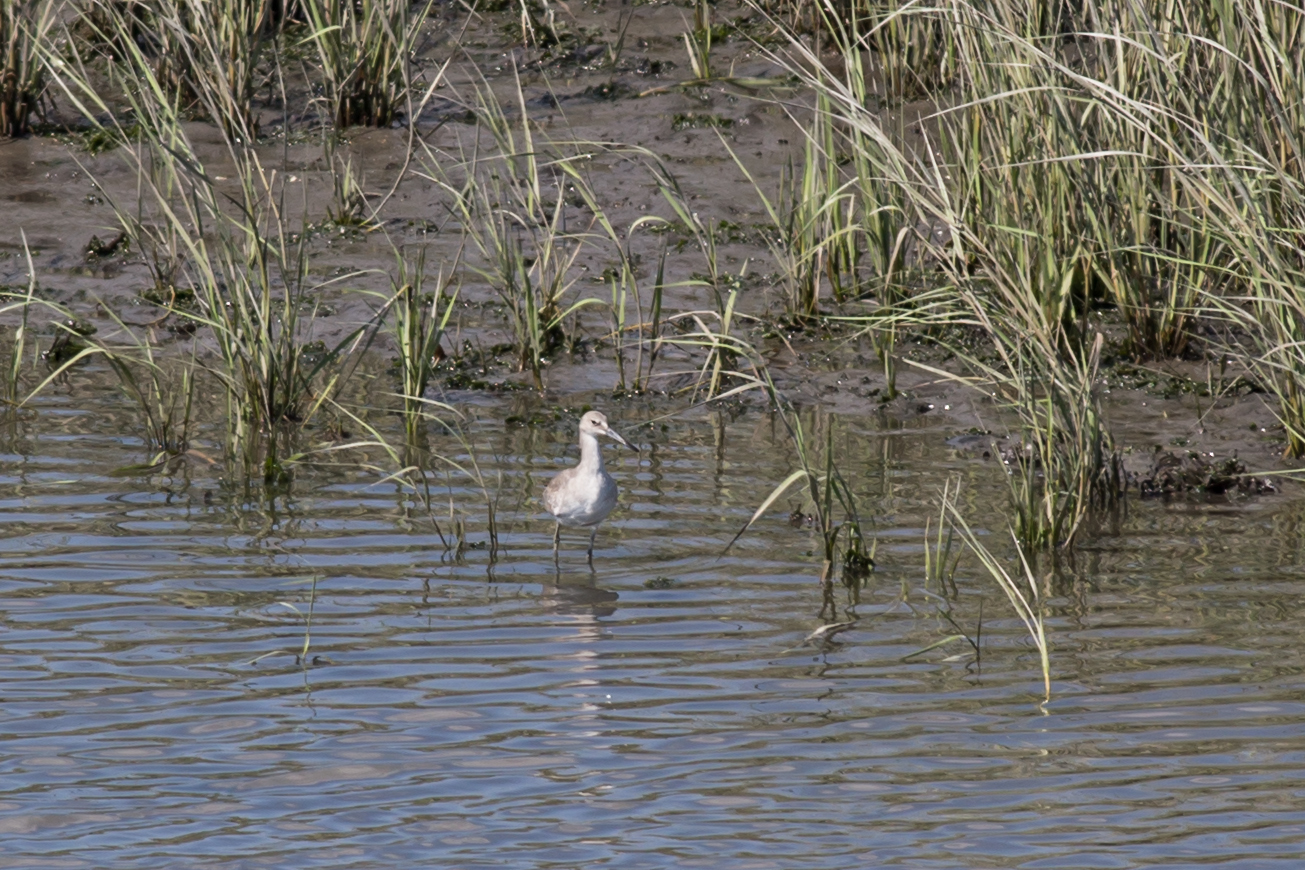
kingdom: Animalia
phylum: Chordata
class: Aves
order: Charadriiformes
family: Scolopacidae
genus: Tringa
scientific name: Tringa semipalmata
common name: Willet
